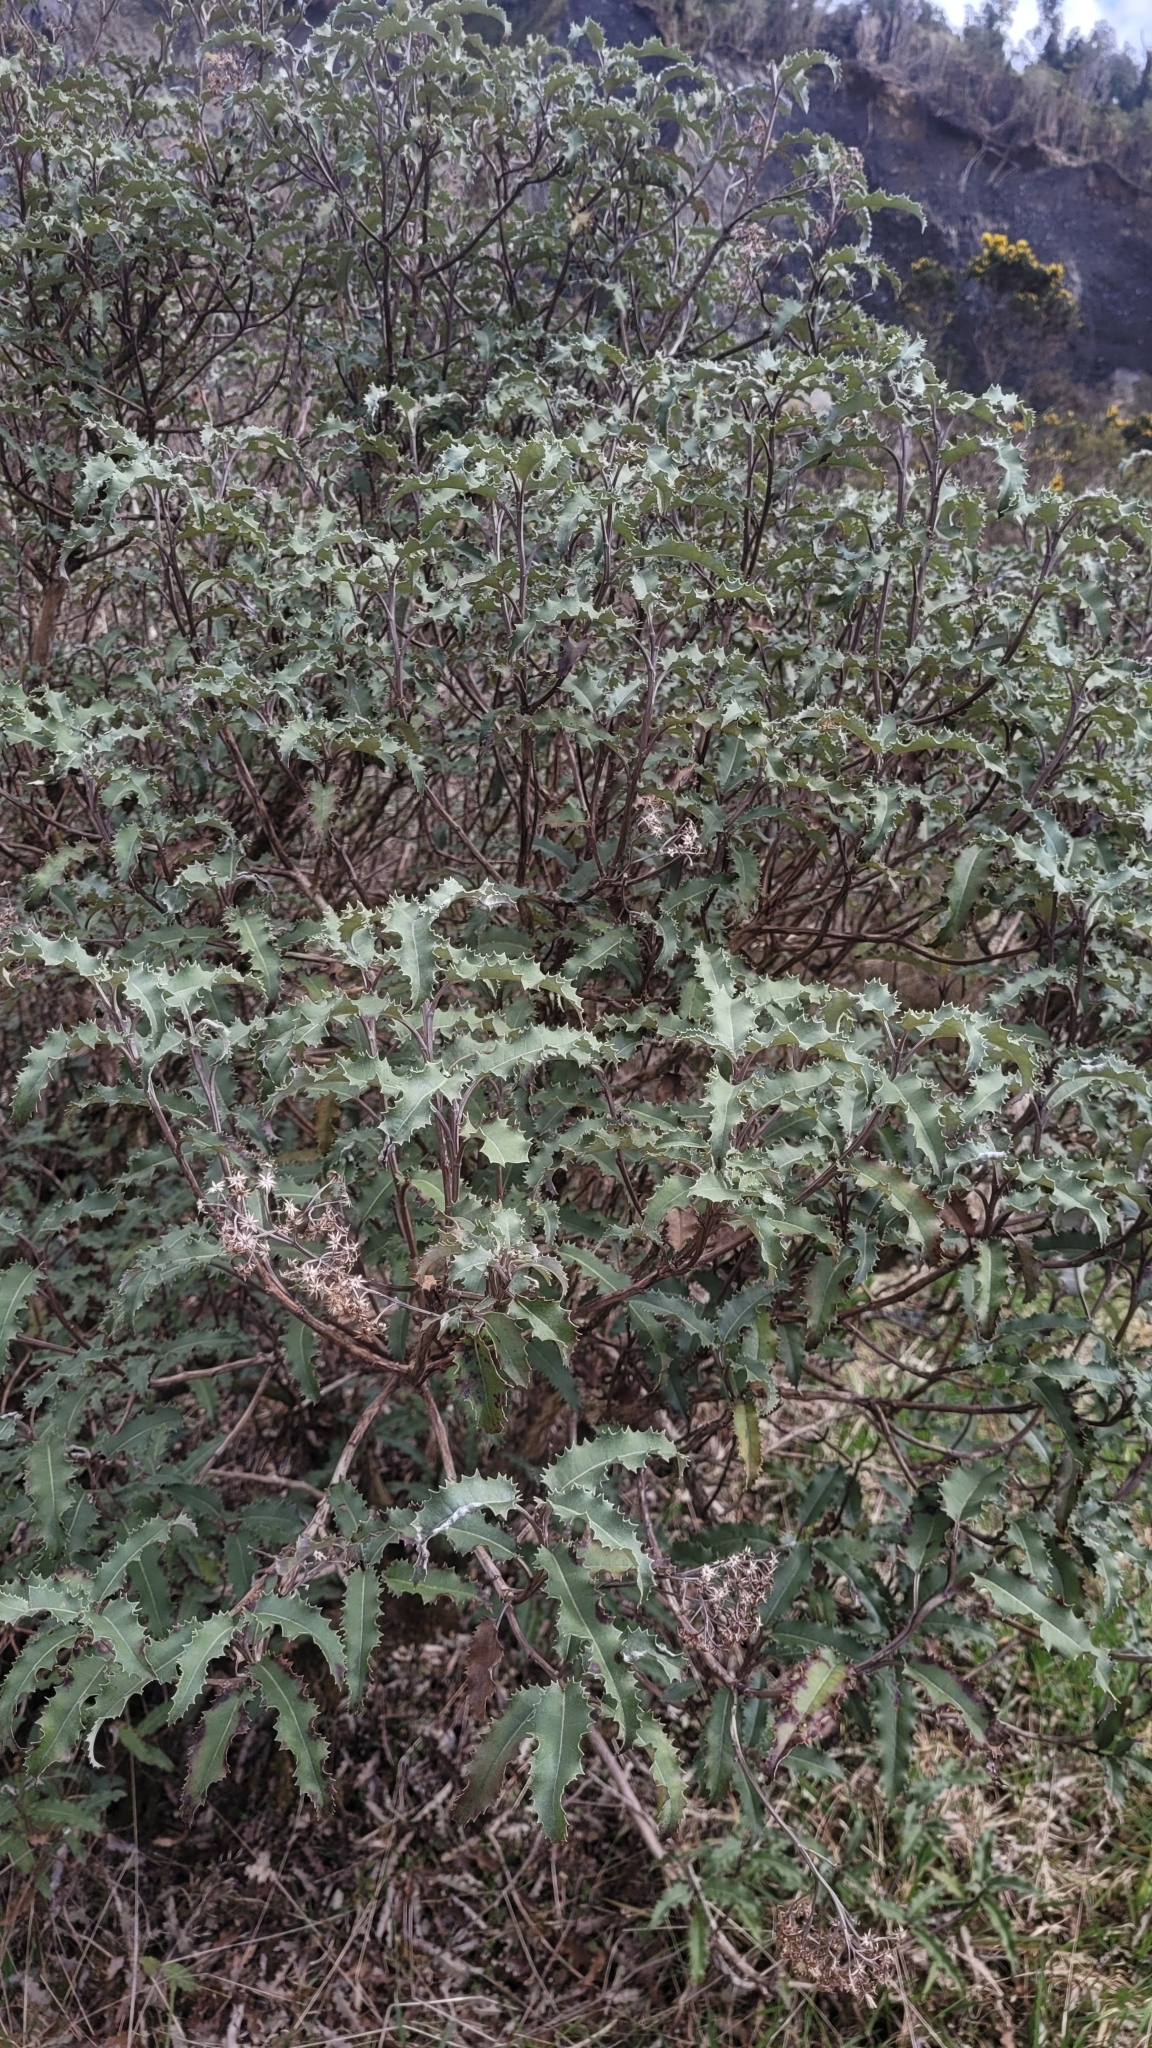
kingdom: Plantae
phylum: Tracheophyta
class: Magnoliopsida
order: Asterales
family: Asteraceae
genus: Olearia
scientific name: Olearia macrodonta
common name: New zealand holly
